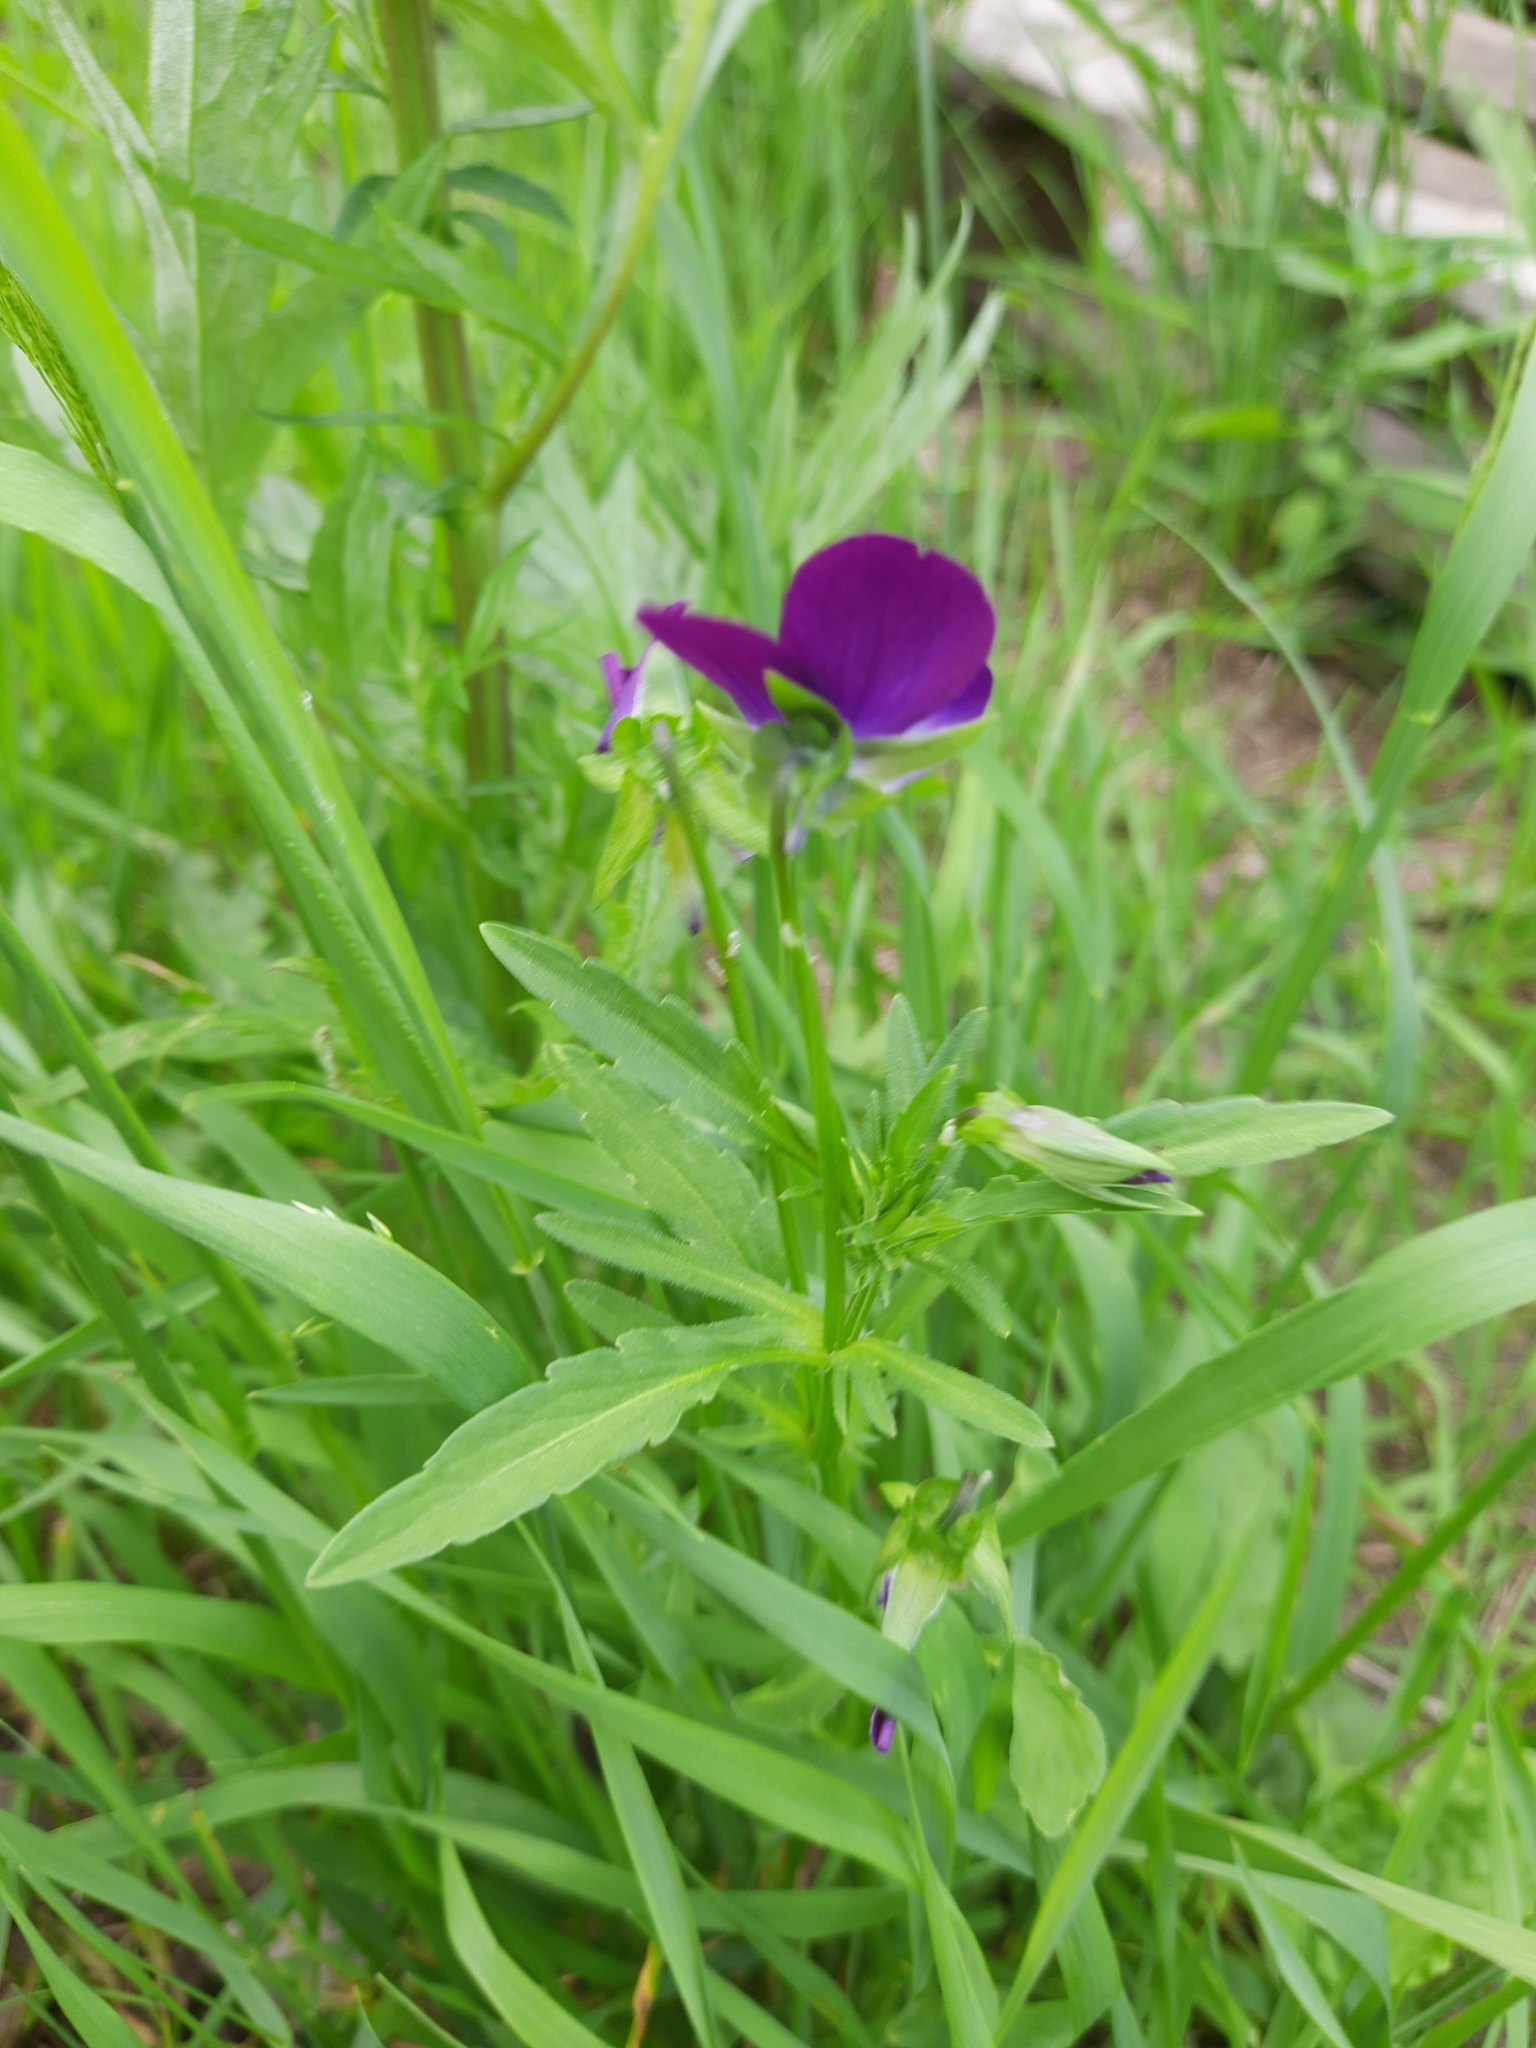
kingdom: Plantae
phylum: Tracheophyta
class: Magnoliopsida
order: Malpighiales
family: Violaceae
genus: Viola
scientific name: Viola wittrockiana
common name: Garden pansy
